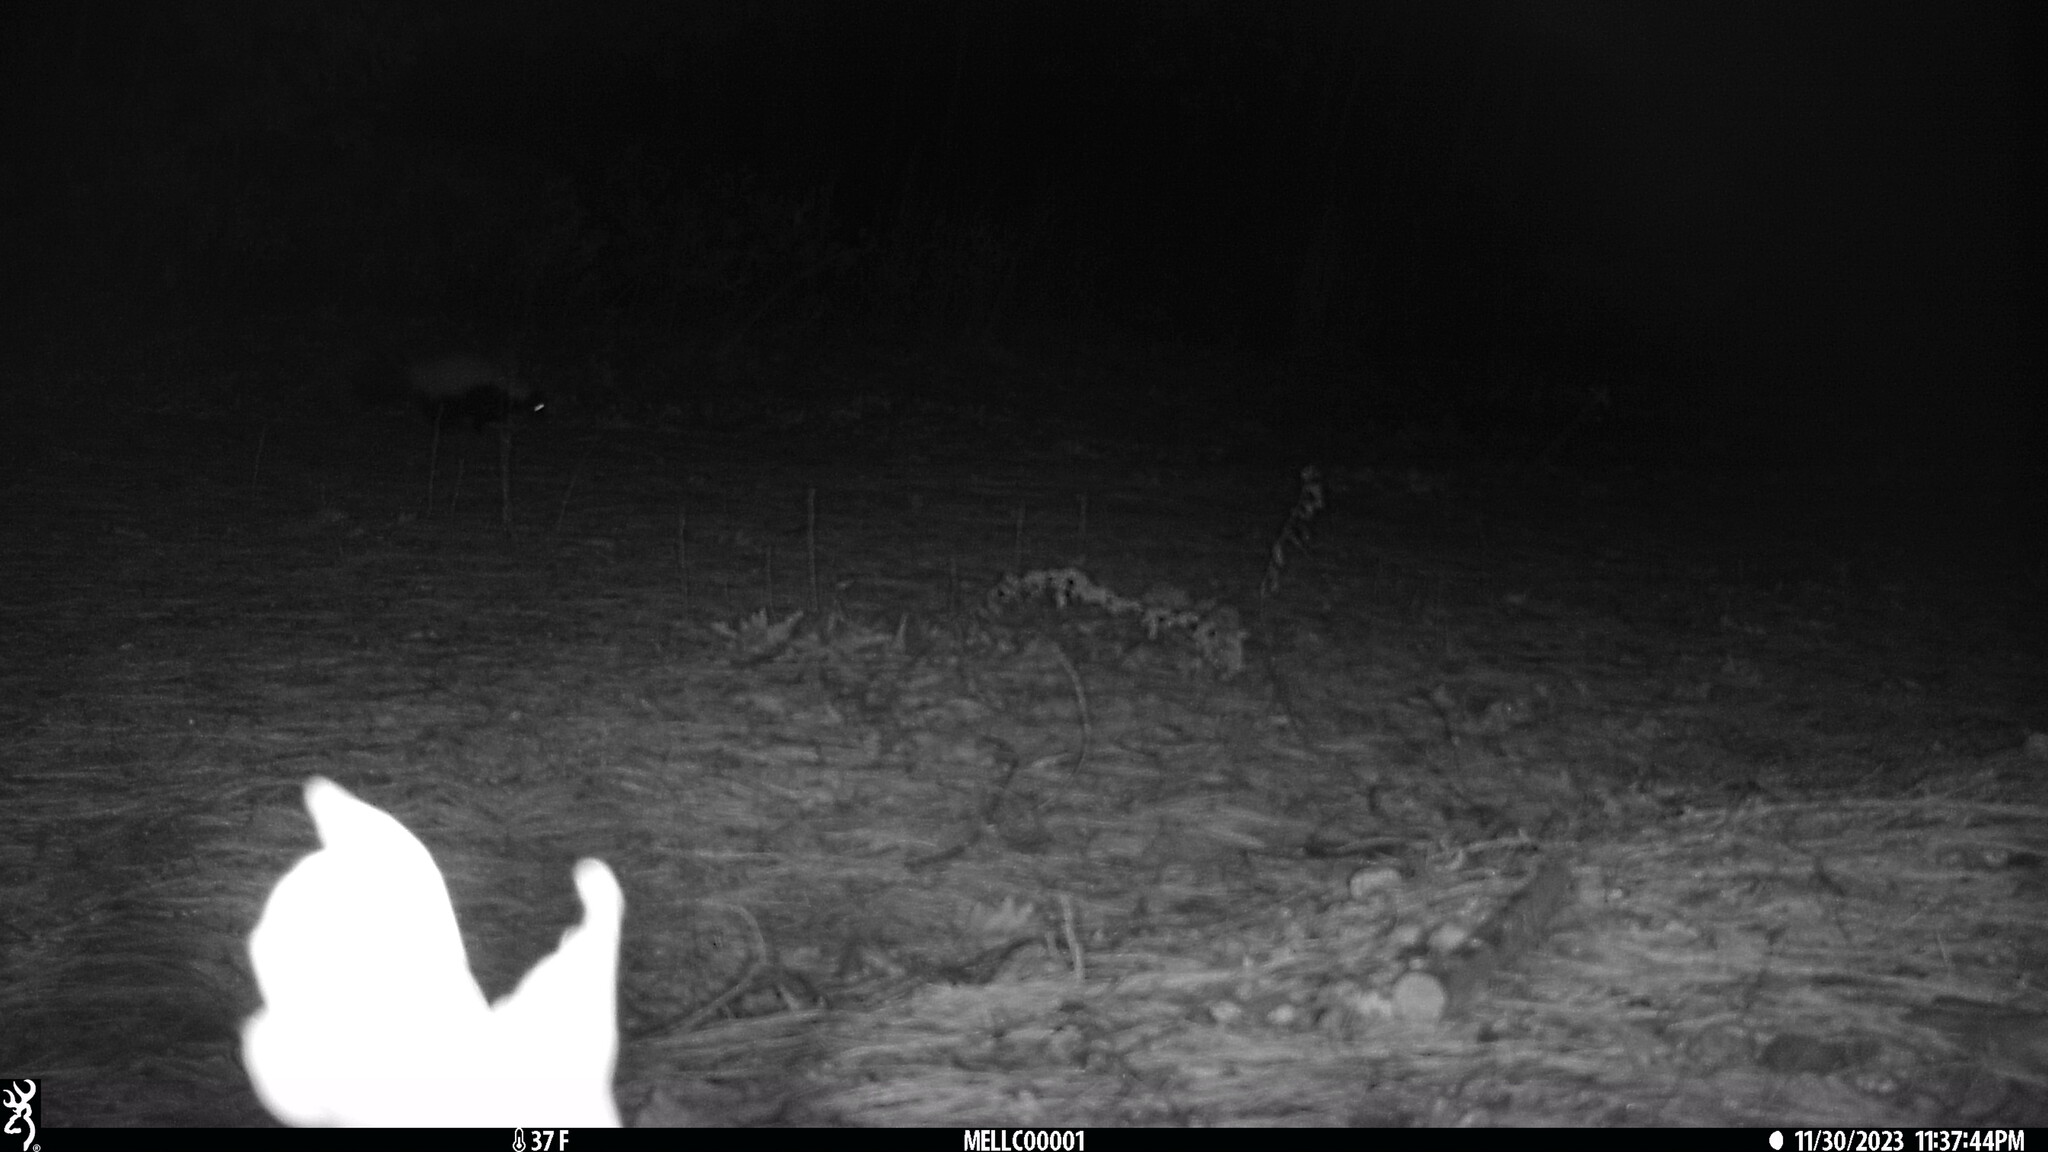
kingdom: Animalia
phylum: Chordata
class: Mammalia
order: Carnivora
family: Mephitidae
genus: Mephitis
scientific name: Mephitis mephitis
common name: Striped skunk
